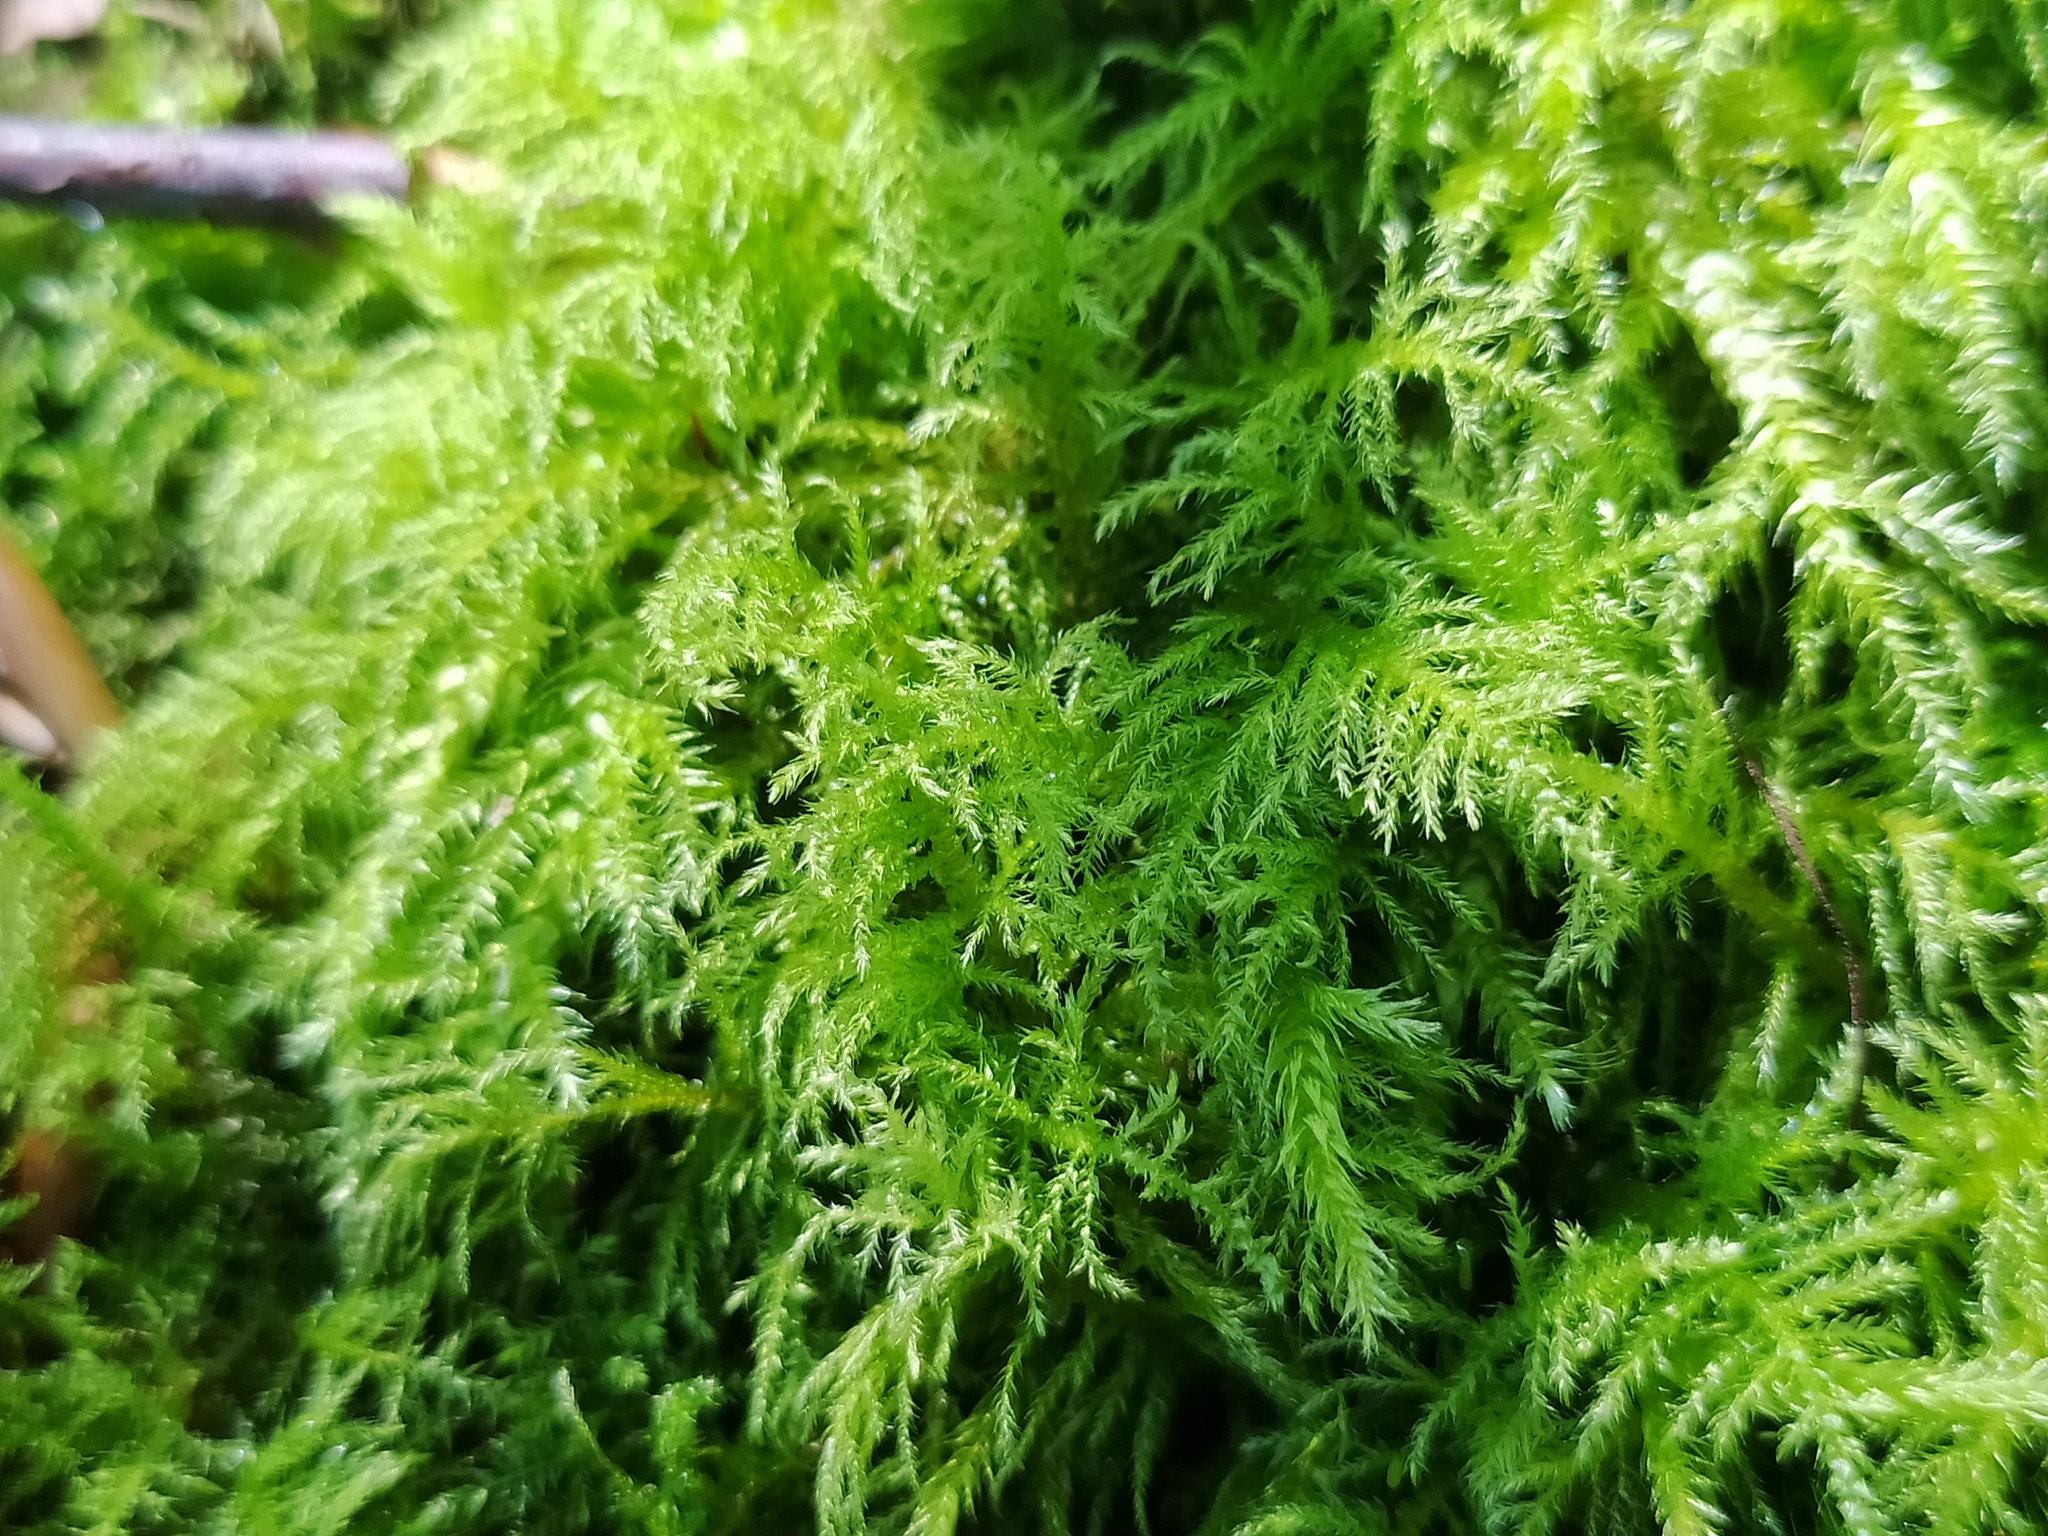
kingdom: Plantae
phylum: Bryophyta
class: Bryopsida
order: Hypnales
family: Brachytheciaceae
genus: Kindbergia
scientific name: Kindbergia praelonga
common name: Slender beaked moss
